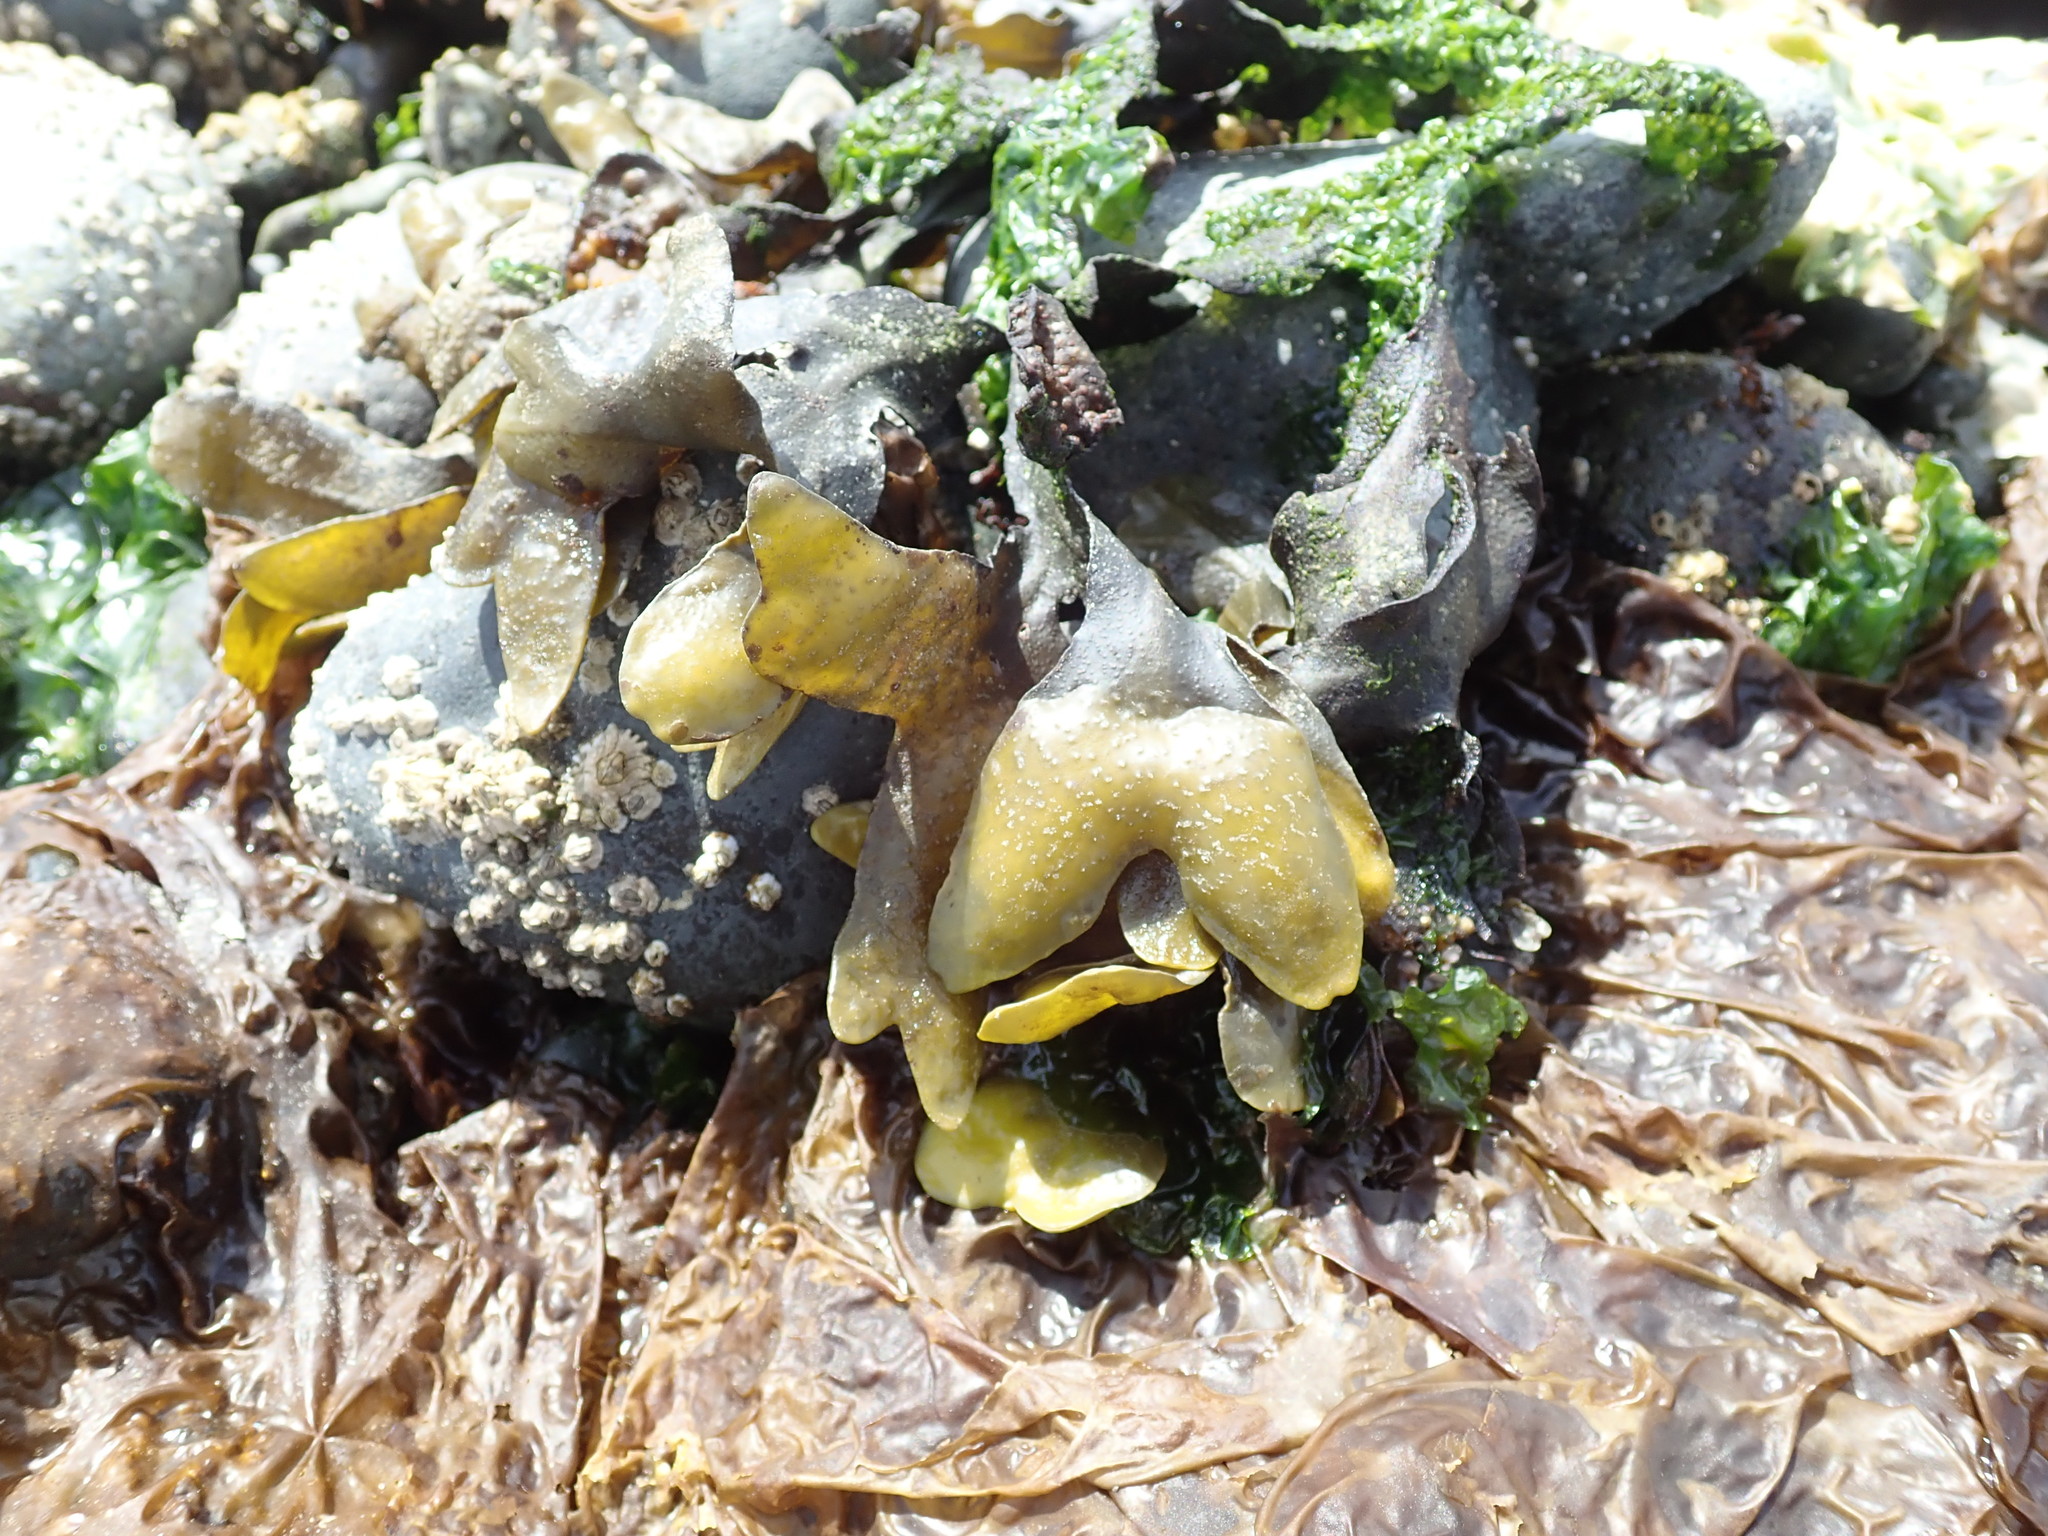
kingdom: Chromista
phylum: Ochrophyta
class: Phaeophyceae
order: Fucales
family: Fucaceae
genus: Fucus
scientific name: Fucus distichus
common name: Rockweed
